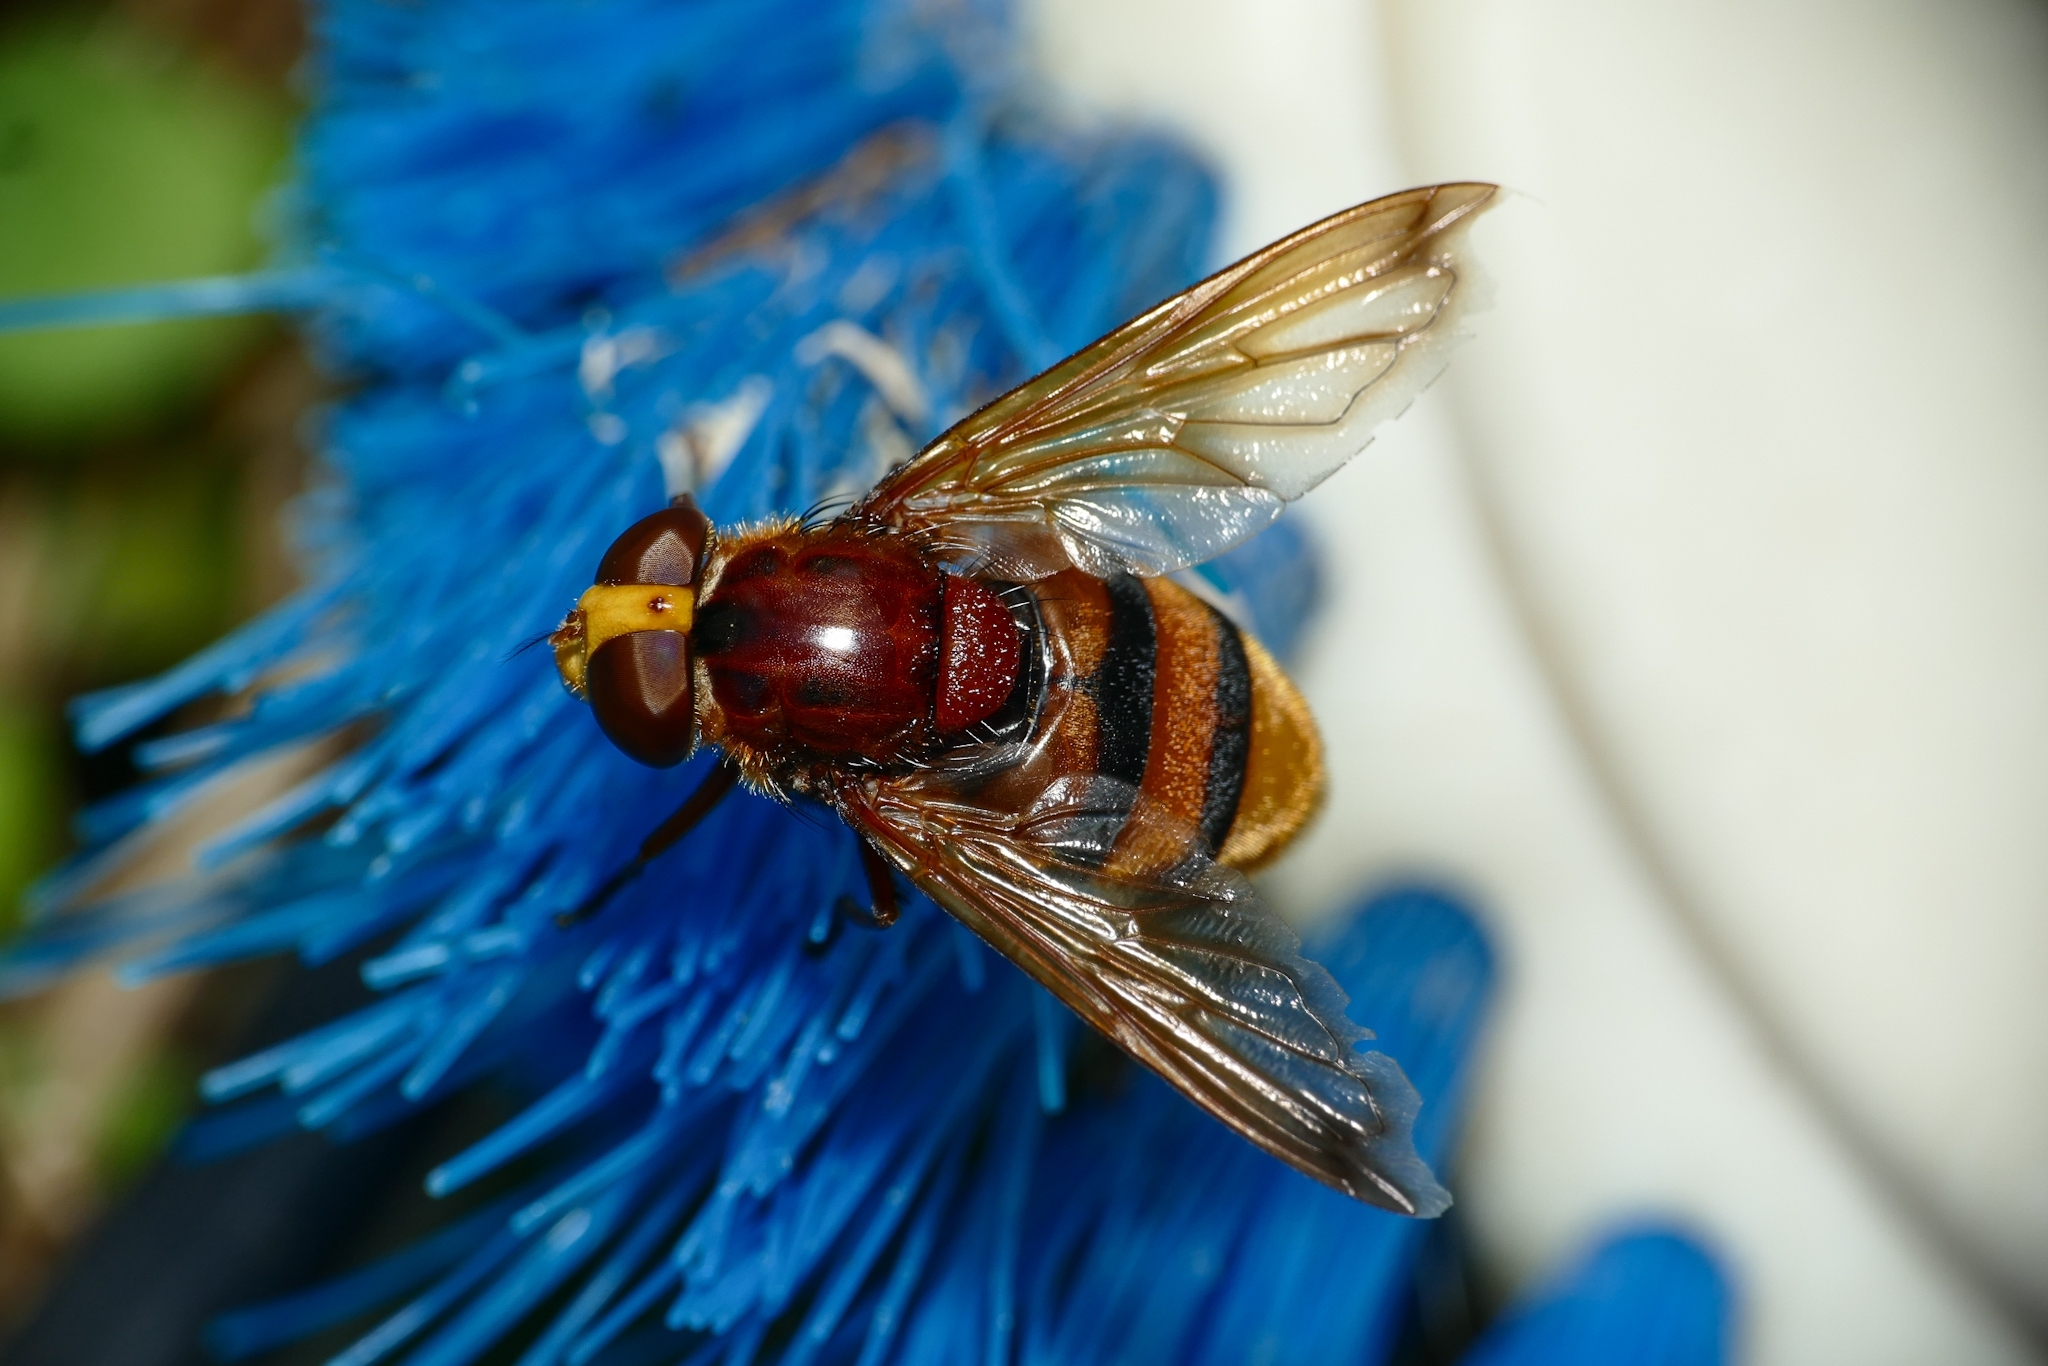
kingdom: Animalia
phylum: Arthropoda
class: Insecta
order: Diptera
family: Syrphidae
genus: Volucella
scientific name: Volucella zonaria
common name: Hornet hoverfly
